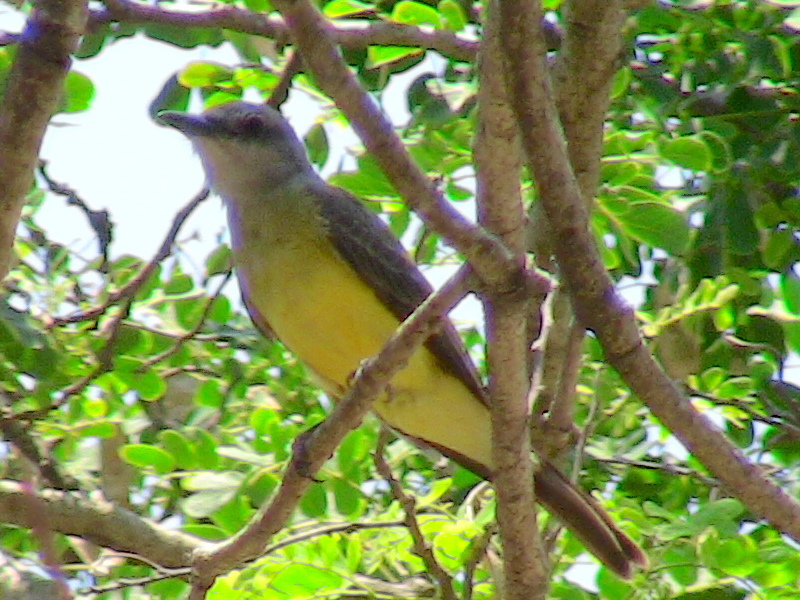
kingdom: Animalia
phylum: Chordata
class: Aves
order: Passeriformes
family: Tyrannidae
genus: Tyrannus
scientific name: Tyrannus melancholicus
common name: Tropical kingbird
